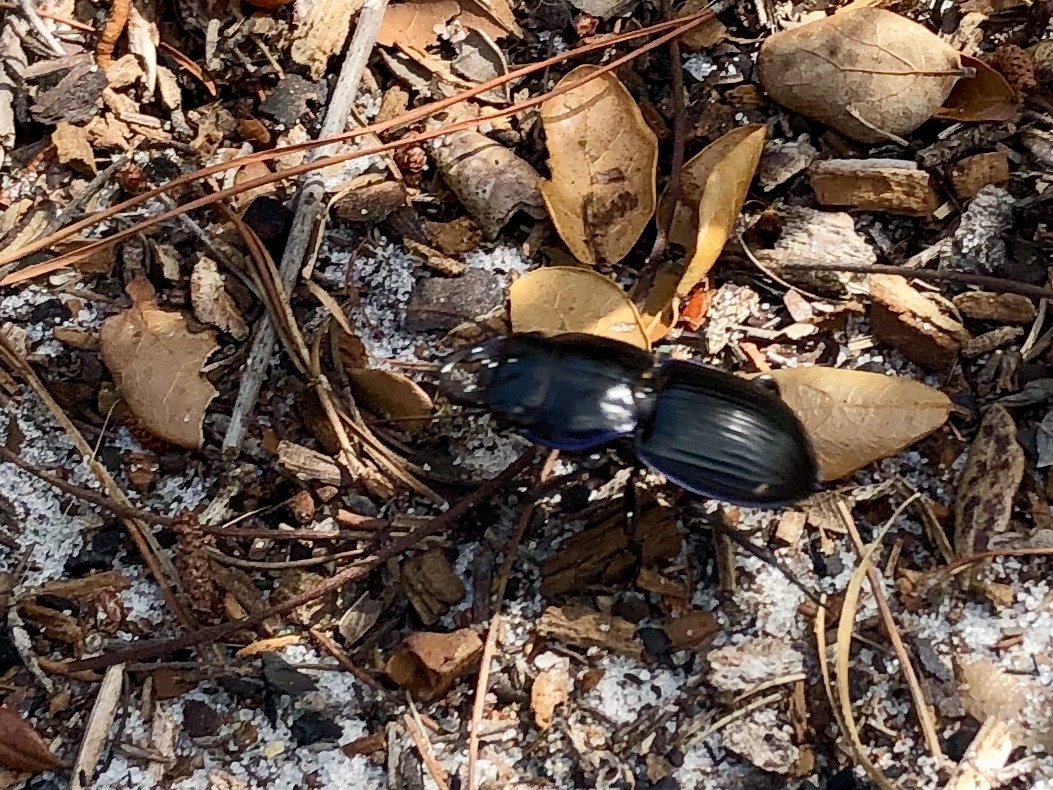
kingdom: Animalia
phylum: Arthropoda
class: Insecta
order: Coleoptera
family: Carabidae
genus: Pasimachus
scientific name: Pasimachus sublaevis
